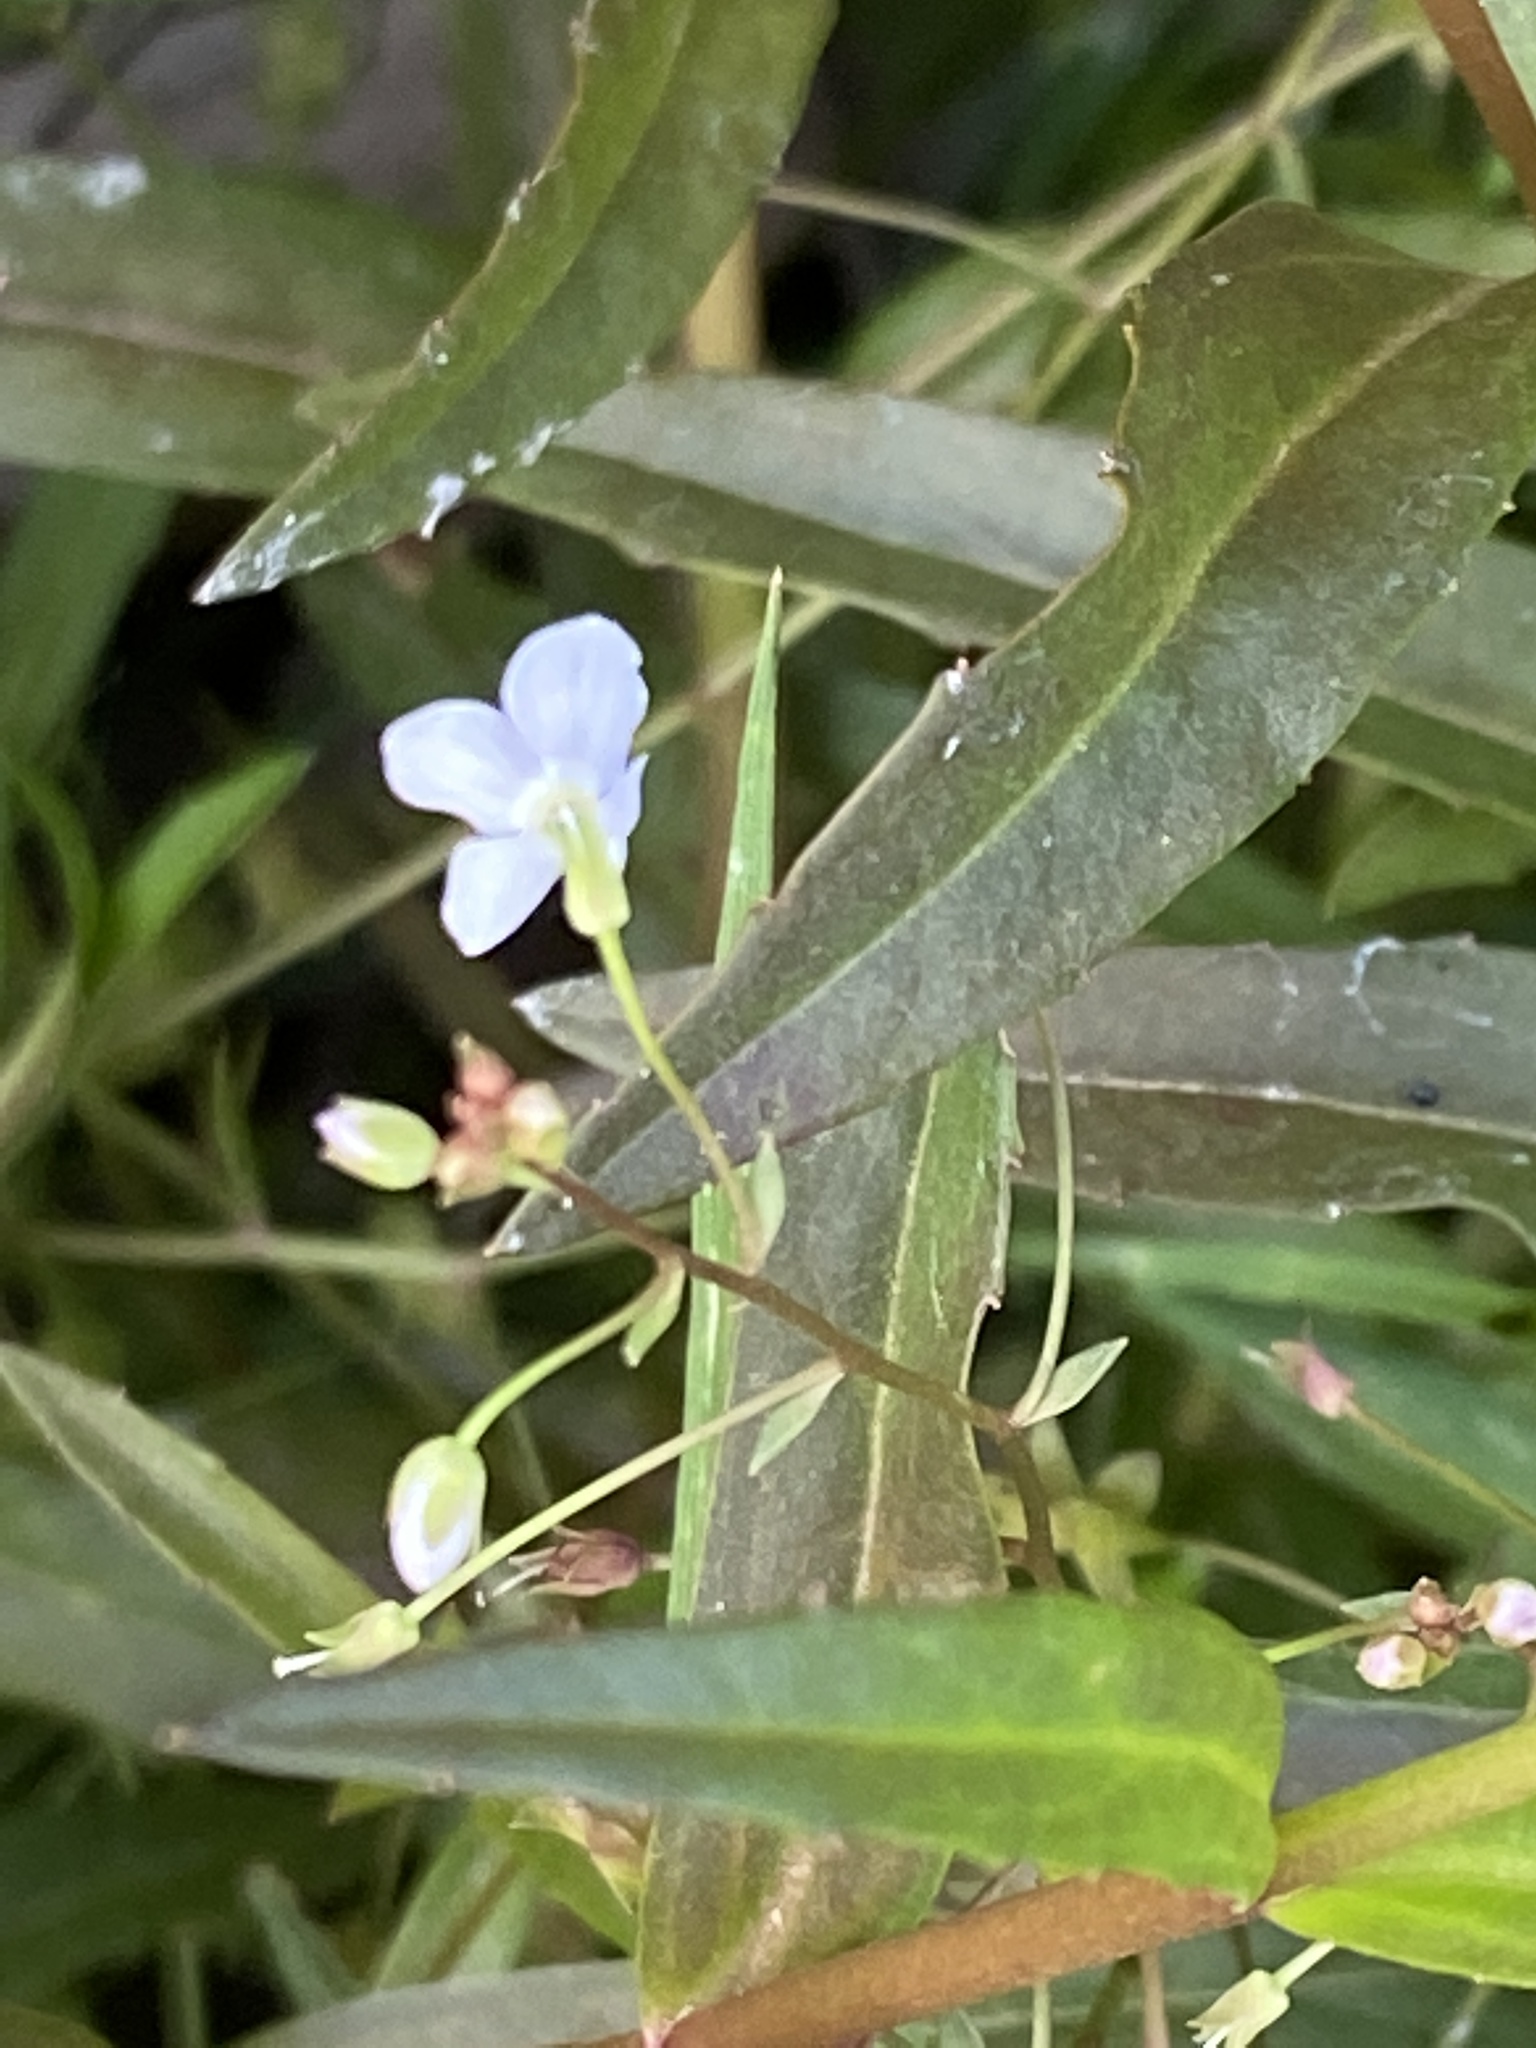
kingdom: Plantae
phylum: Tracheophyta
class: Magnoliopsida
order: Lamiales
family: Plantaginaceae
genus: Veronica
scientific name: Veronica scutellata
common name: Marsh speedwell
